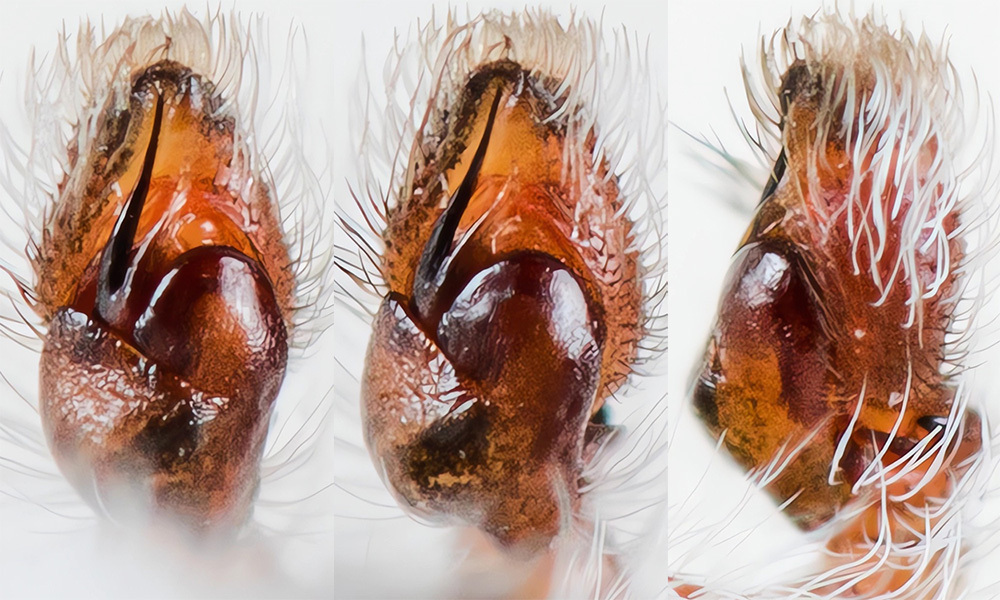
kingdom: Animalia
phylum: Arthropoda
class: Arachnida
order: Araneae
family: Salticidae
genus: Pseudomogrus
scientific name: Pseudomogrus validus
